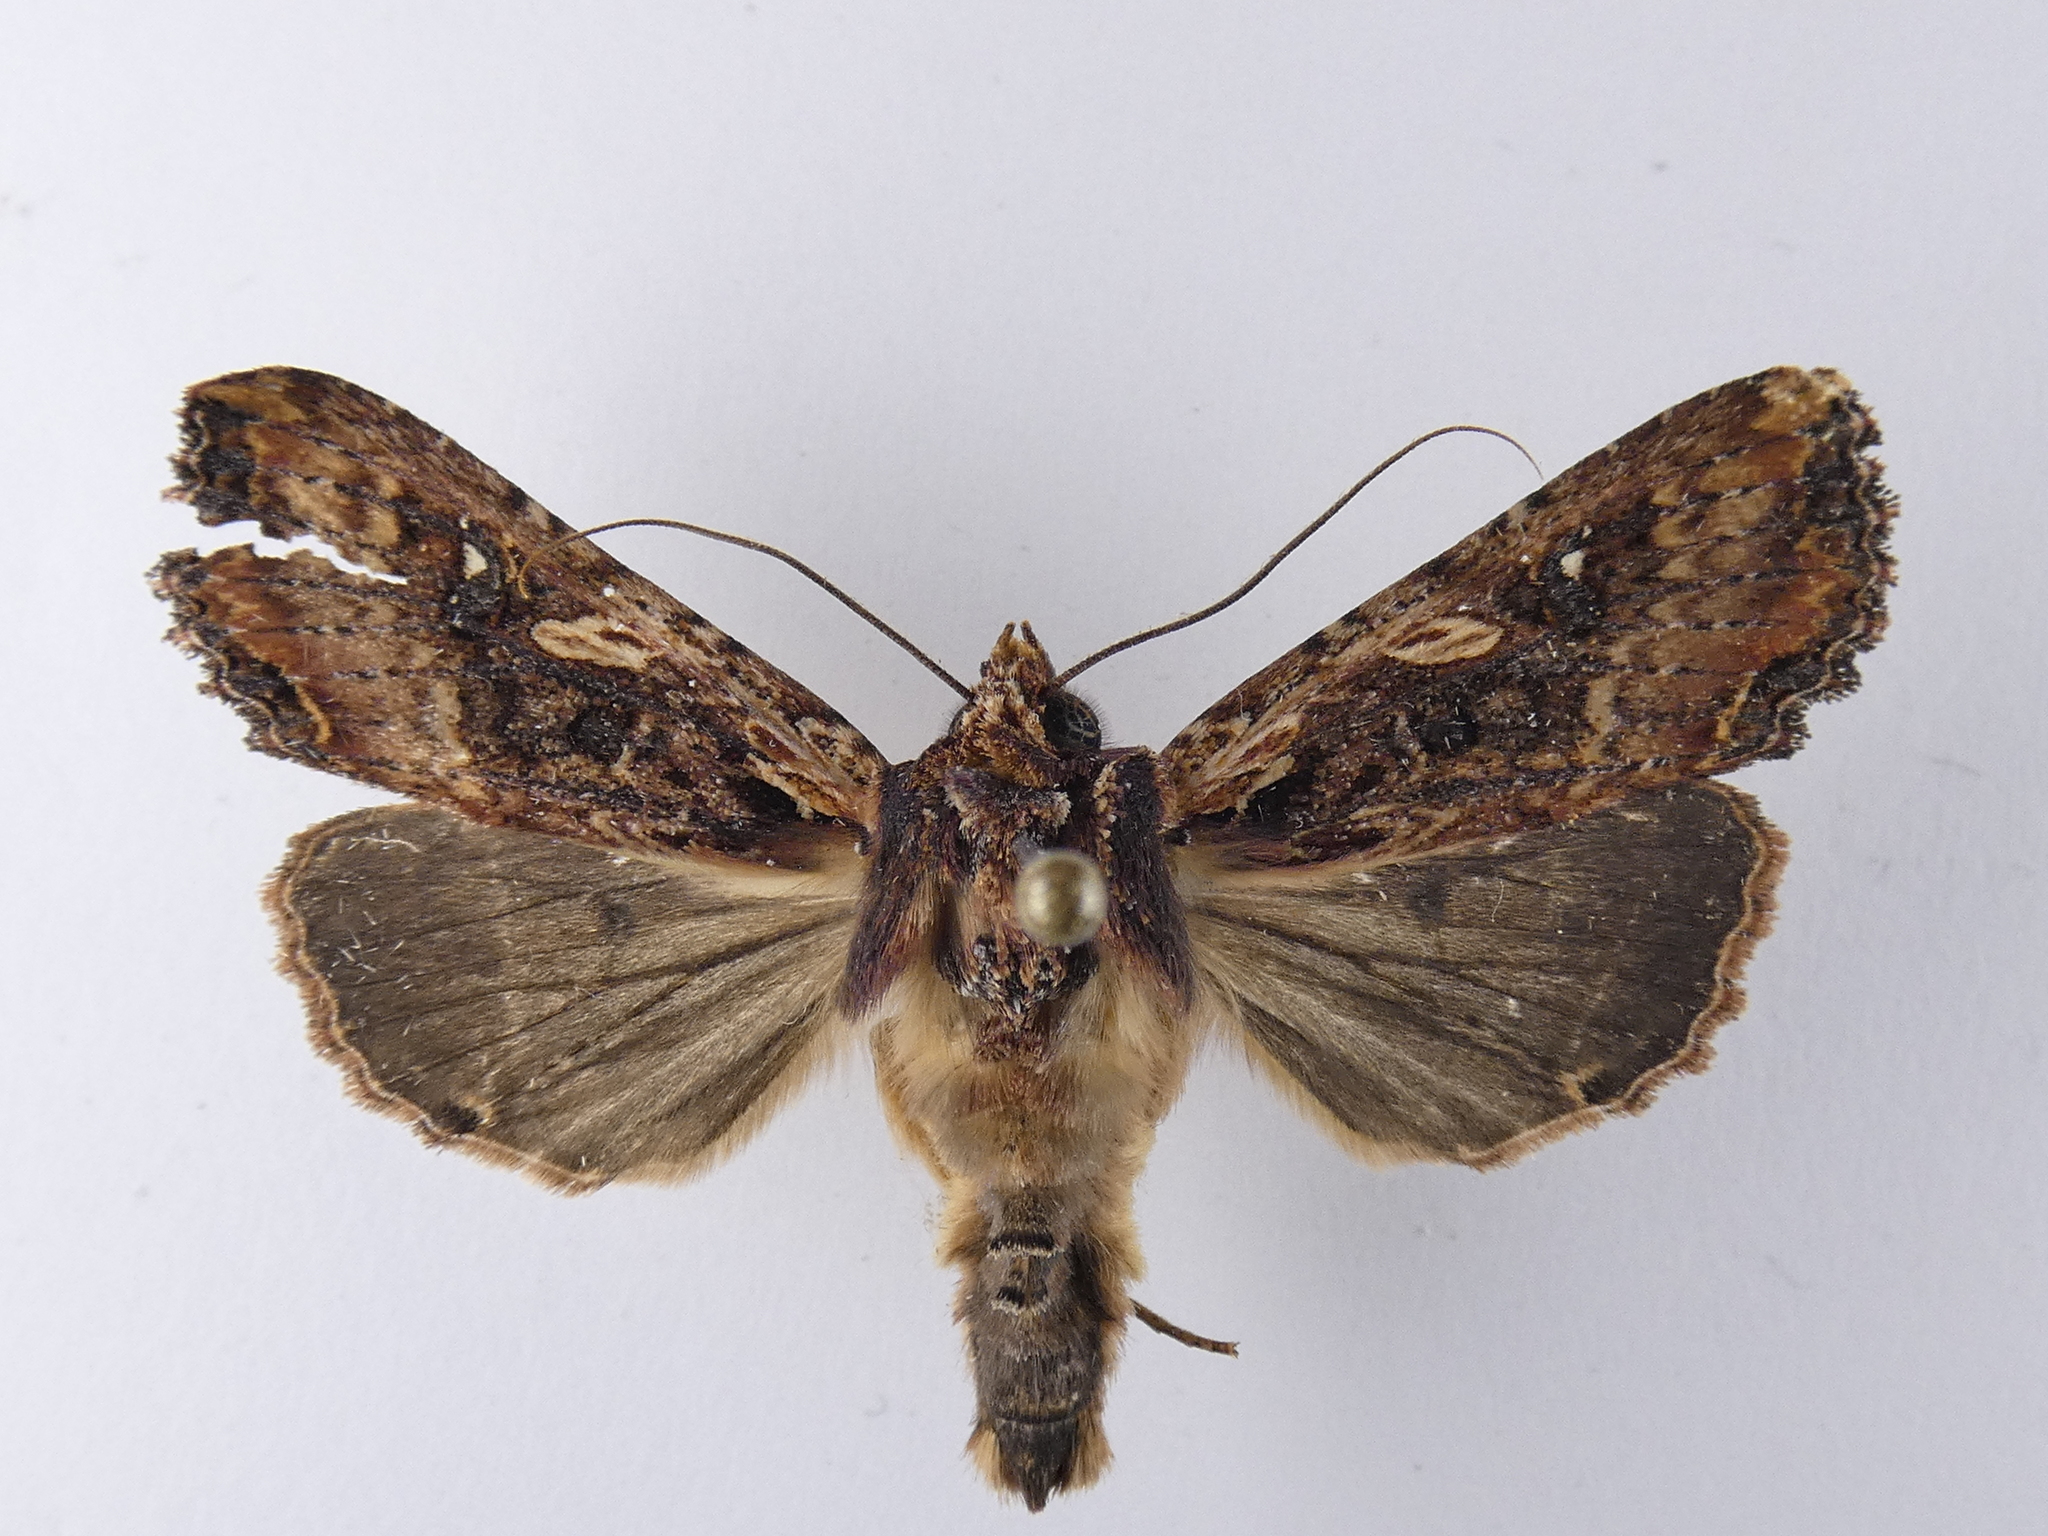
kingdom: Animalia
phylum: Arthropoda
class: Insecta
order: Lepidoptera
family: Noctuidae
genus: Meterana
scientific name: Meterana stipata
